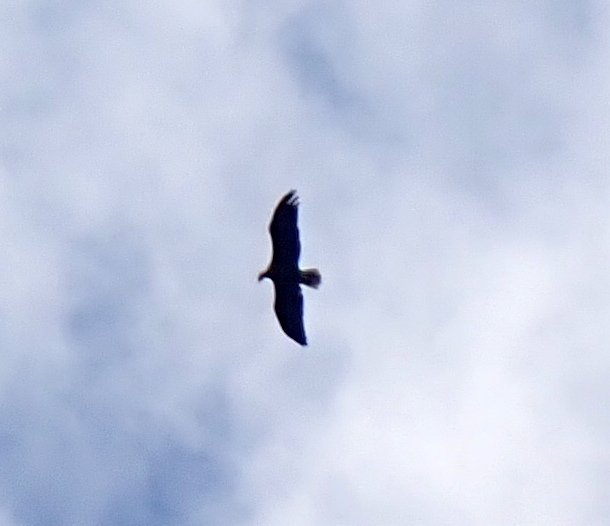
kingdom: Animalia
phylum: Chordata
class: Aves
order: Accipitriformes
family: Accipitridae
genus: Haliaeetus
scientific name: Haliaeetus leucocephalus
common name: Bald eagle
